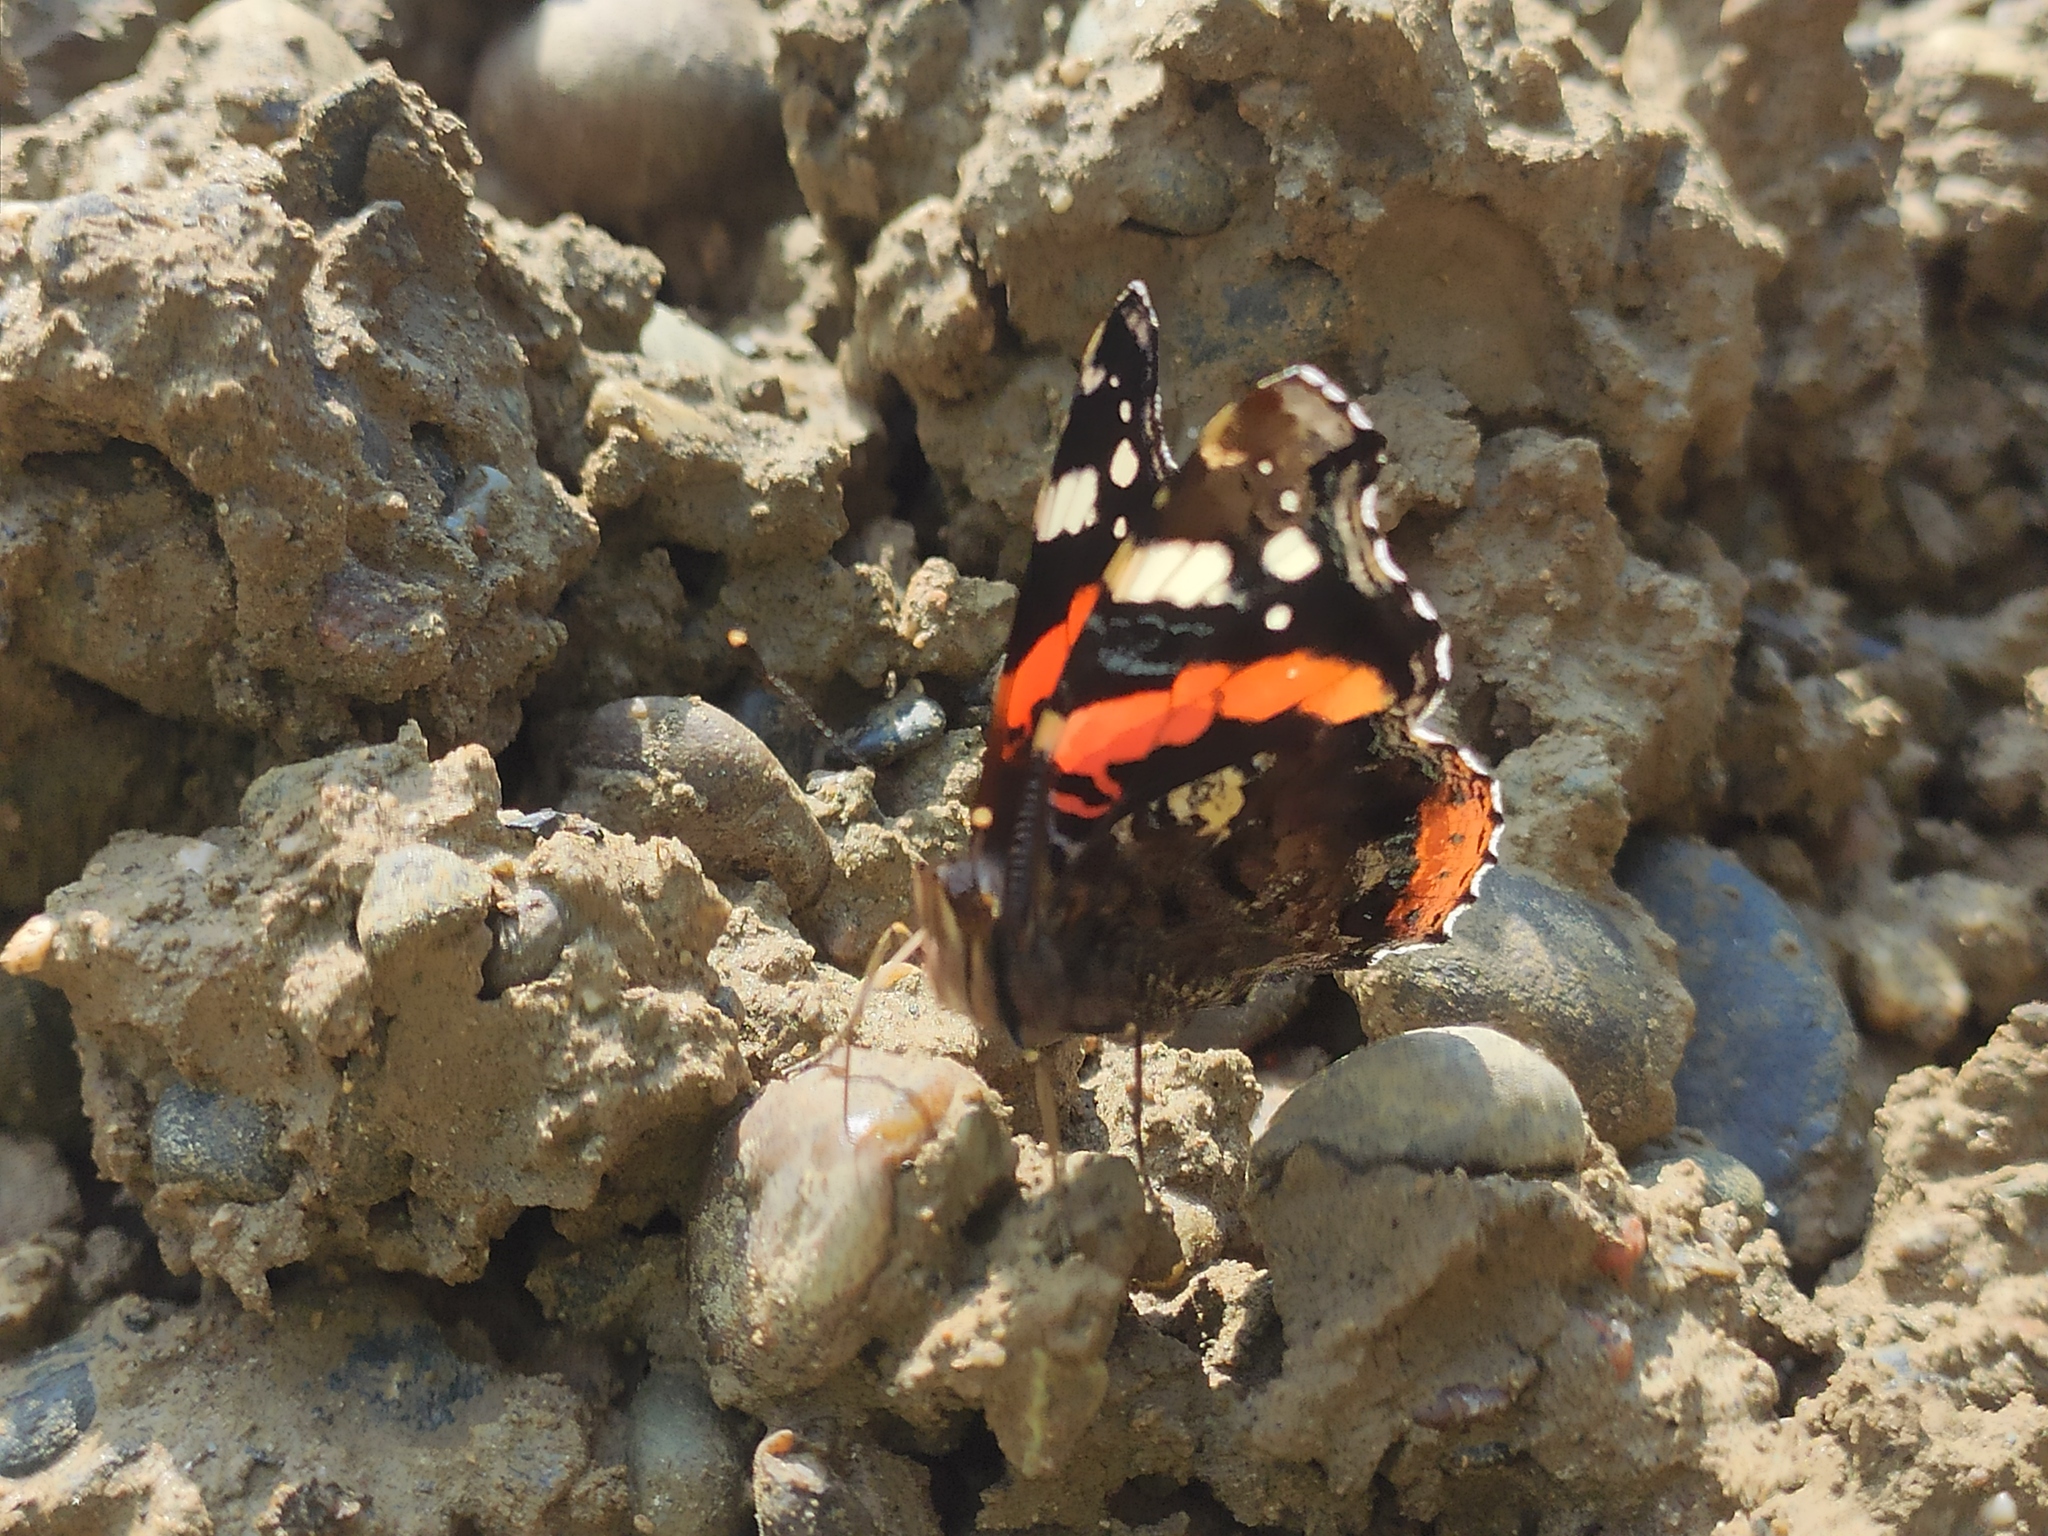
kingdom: Animalia
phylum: Arthropoda
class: Insecta
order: Lepidoptera
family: Nymphalidae
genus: Vanessa
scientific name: Vanessa atalanta
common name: Red admiral
